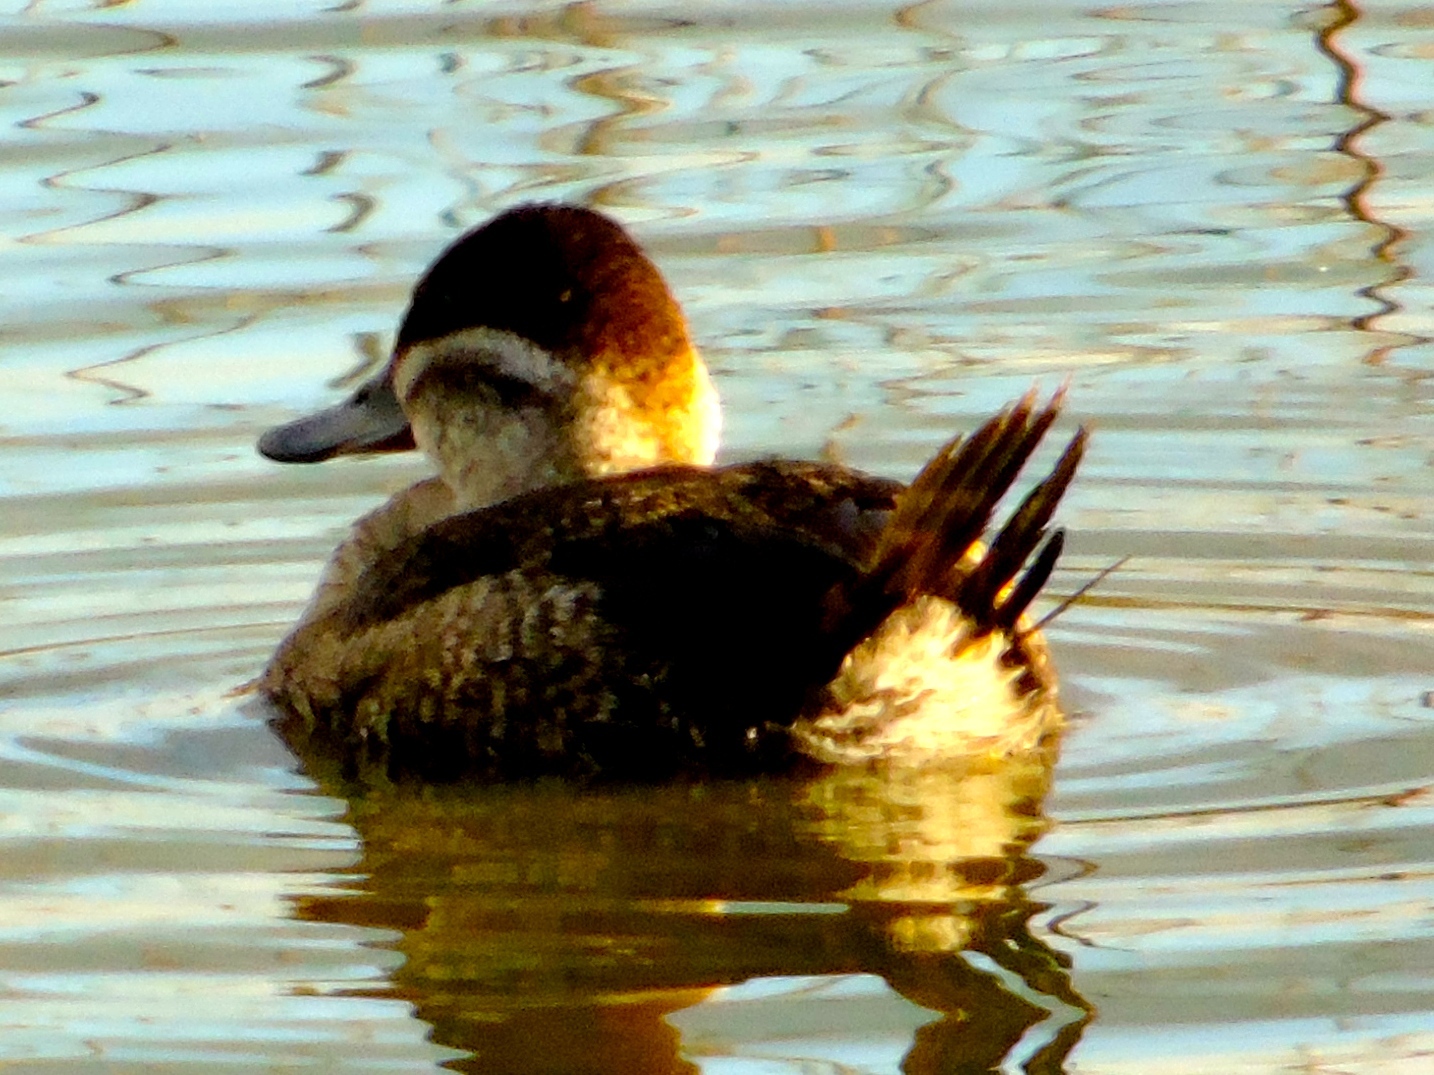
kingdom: Animalia
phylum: Chordata
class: Aves
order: Anseriformes
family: Anatidae
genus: Oxyura
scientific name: Oxyura jamaicensis
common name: Ruddy duck
